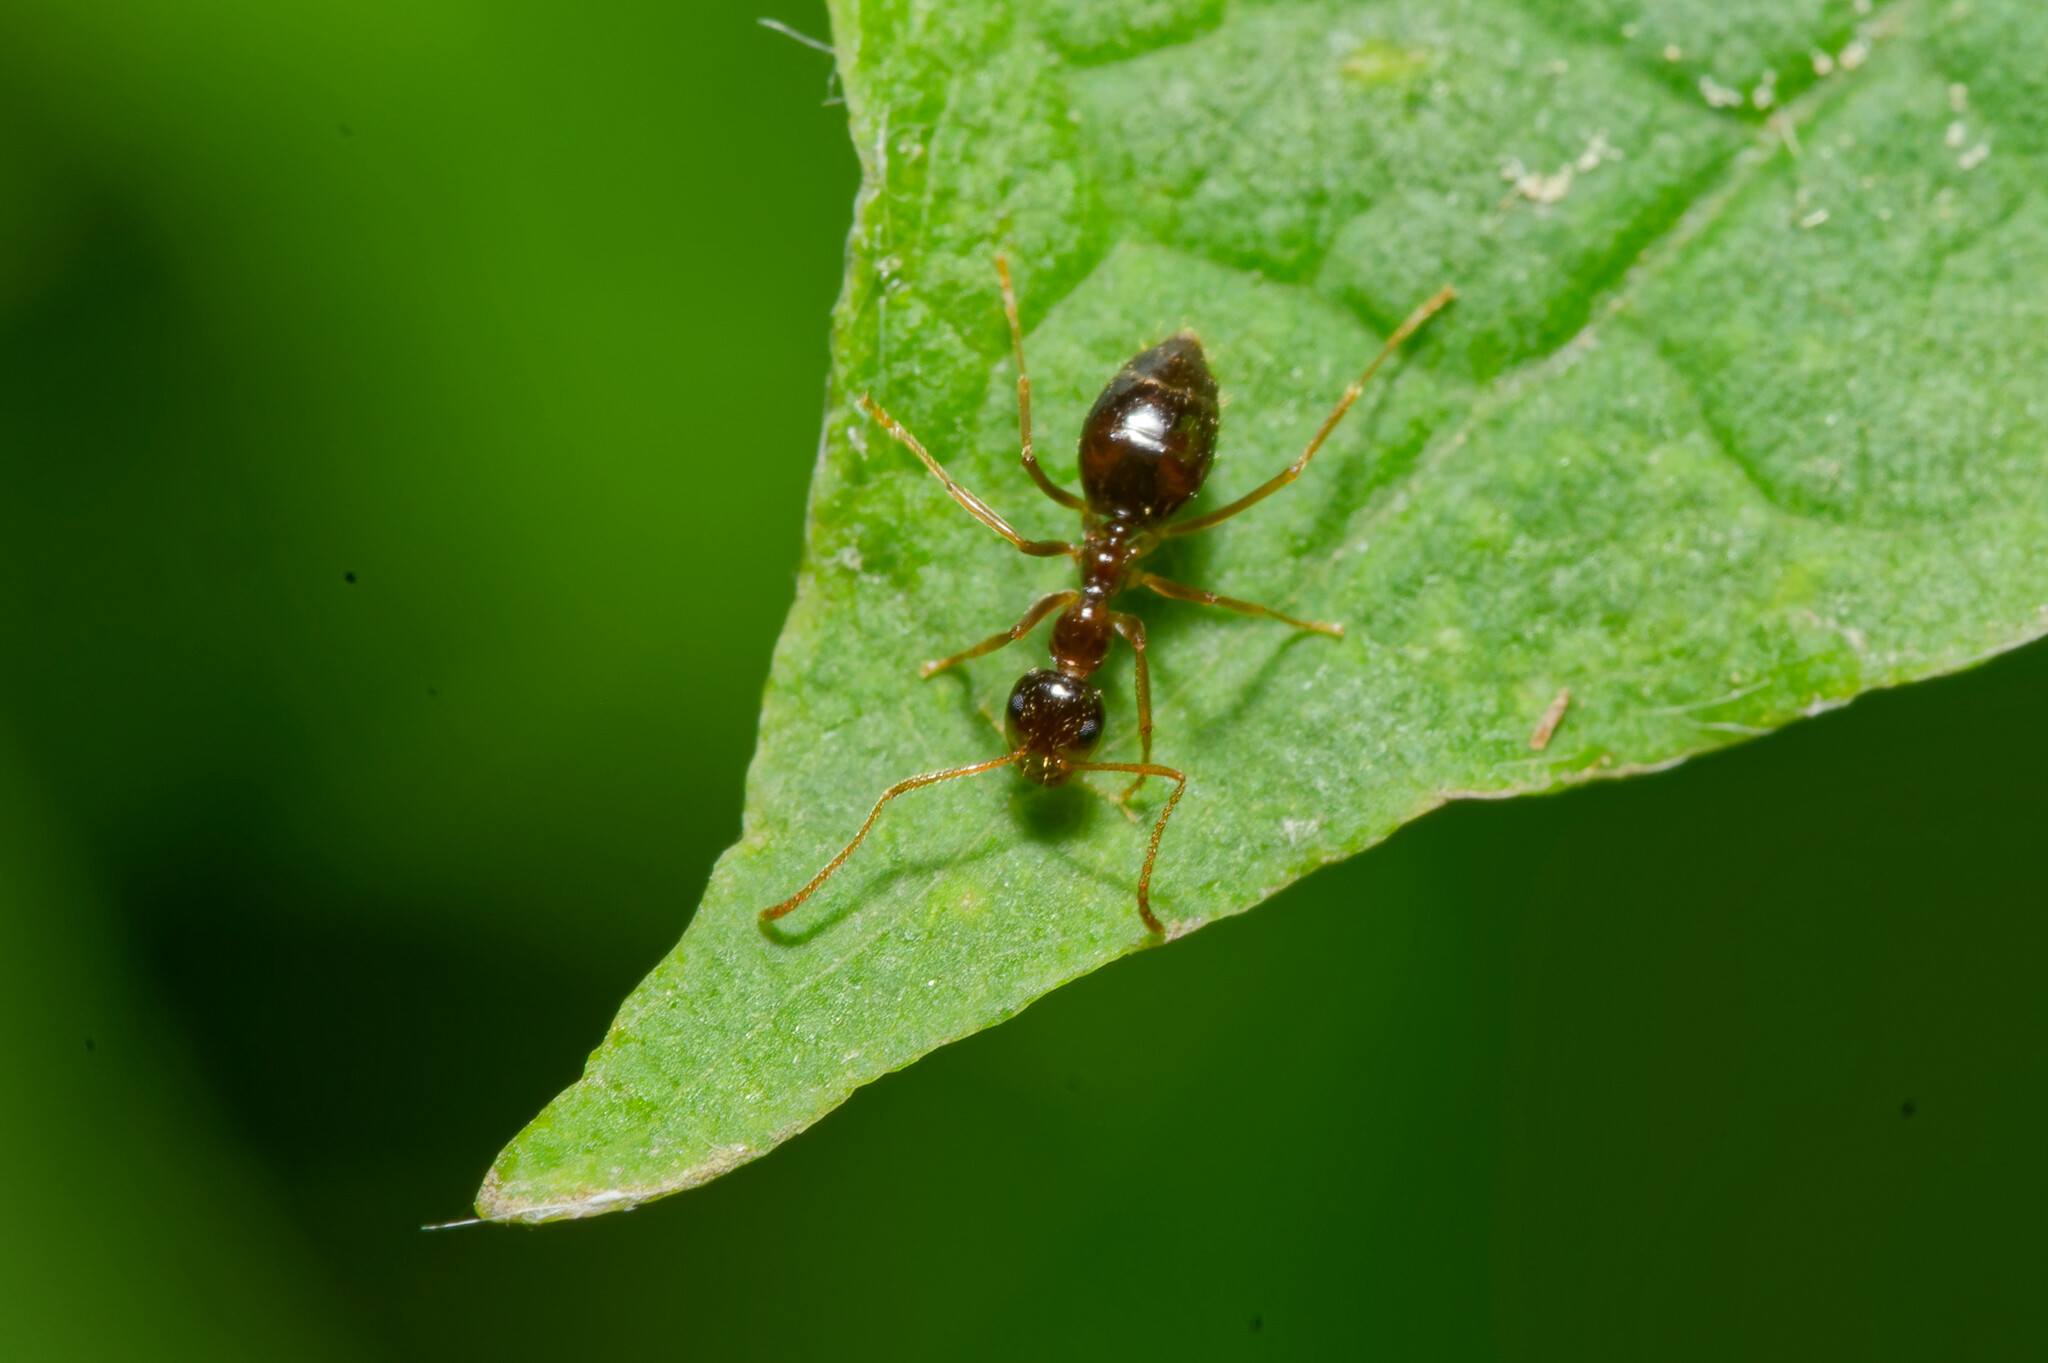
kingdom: Animalia
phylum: Arthropoda
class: Insecta
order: Hymenoptera
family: Formicidae
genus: Prenolepis
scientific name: Prenolepis imparis
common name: Small honey ant
